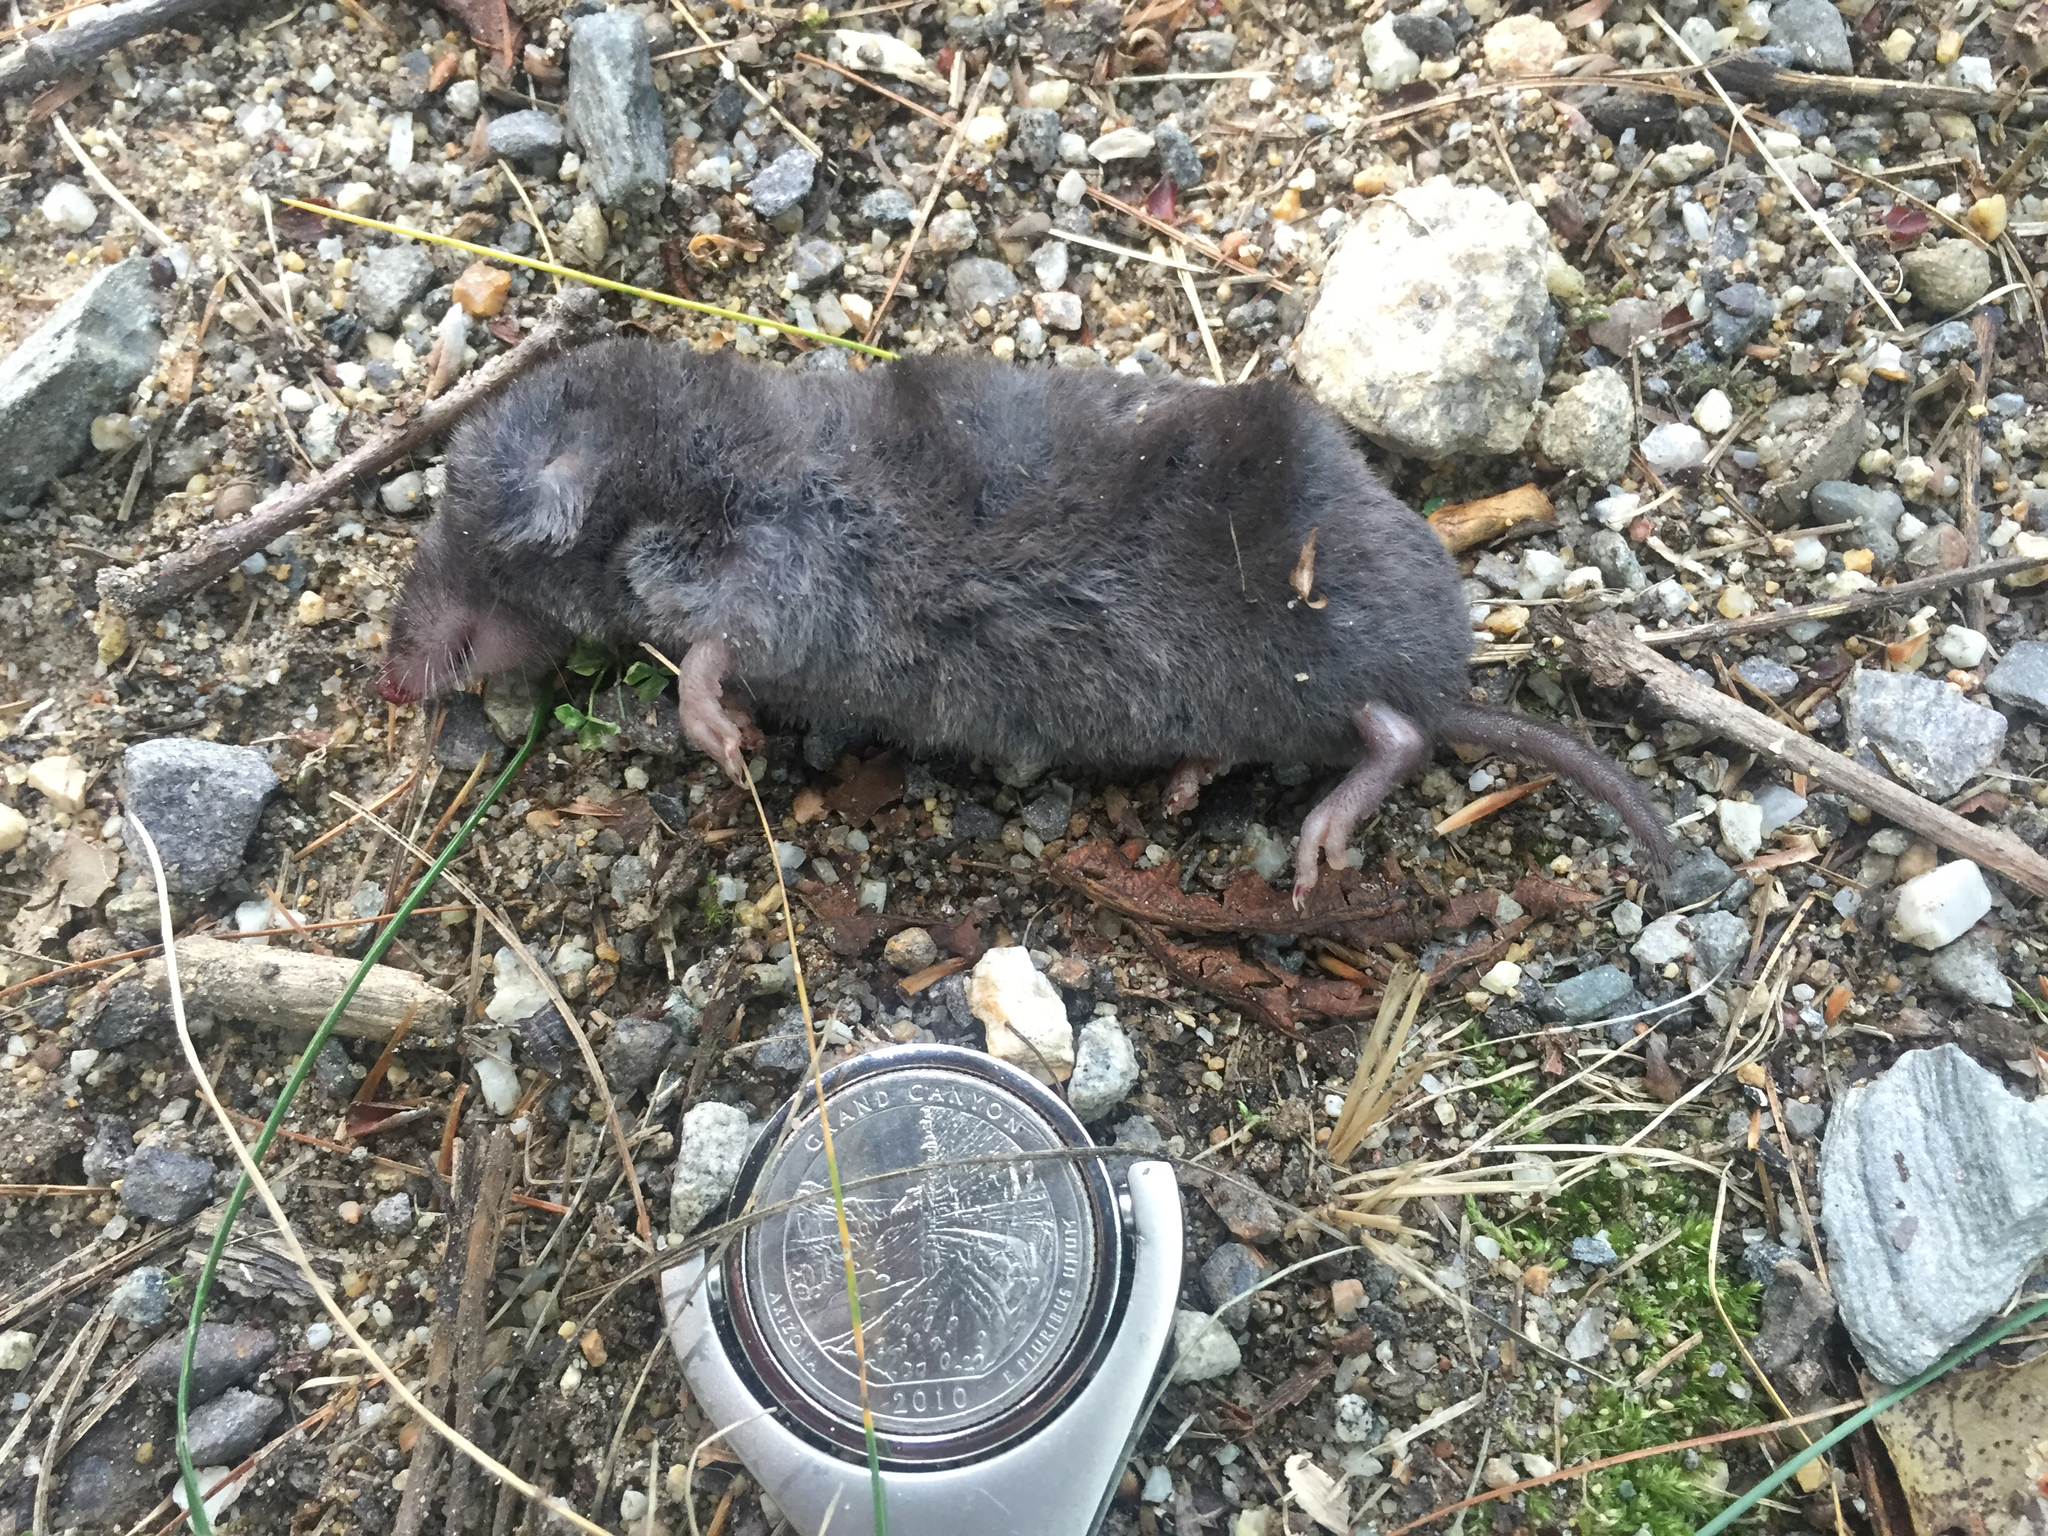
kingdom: Animalia
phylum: Chordata
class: Mammalia
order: Soricomorpha
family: Soricidae
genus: Blarina
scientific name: Blarina brevicauda
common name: Northern short-tailed shrew
